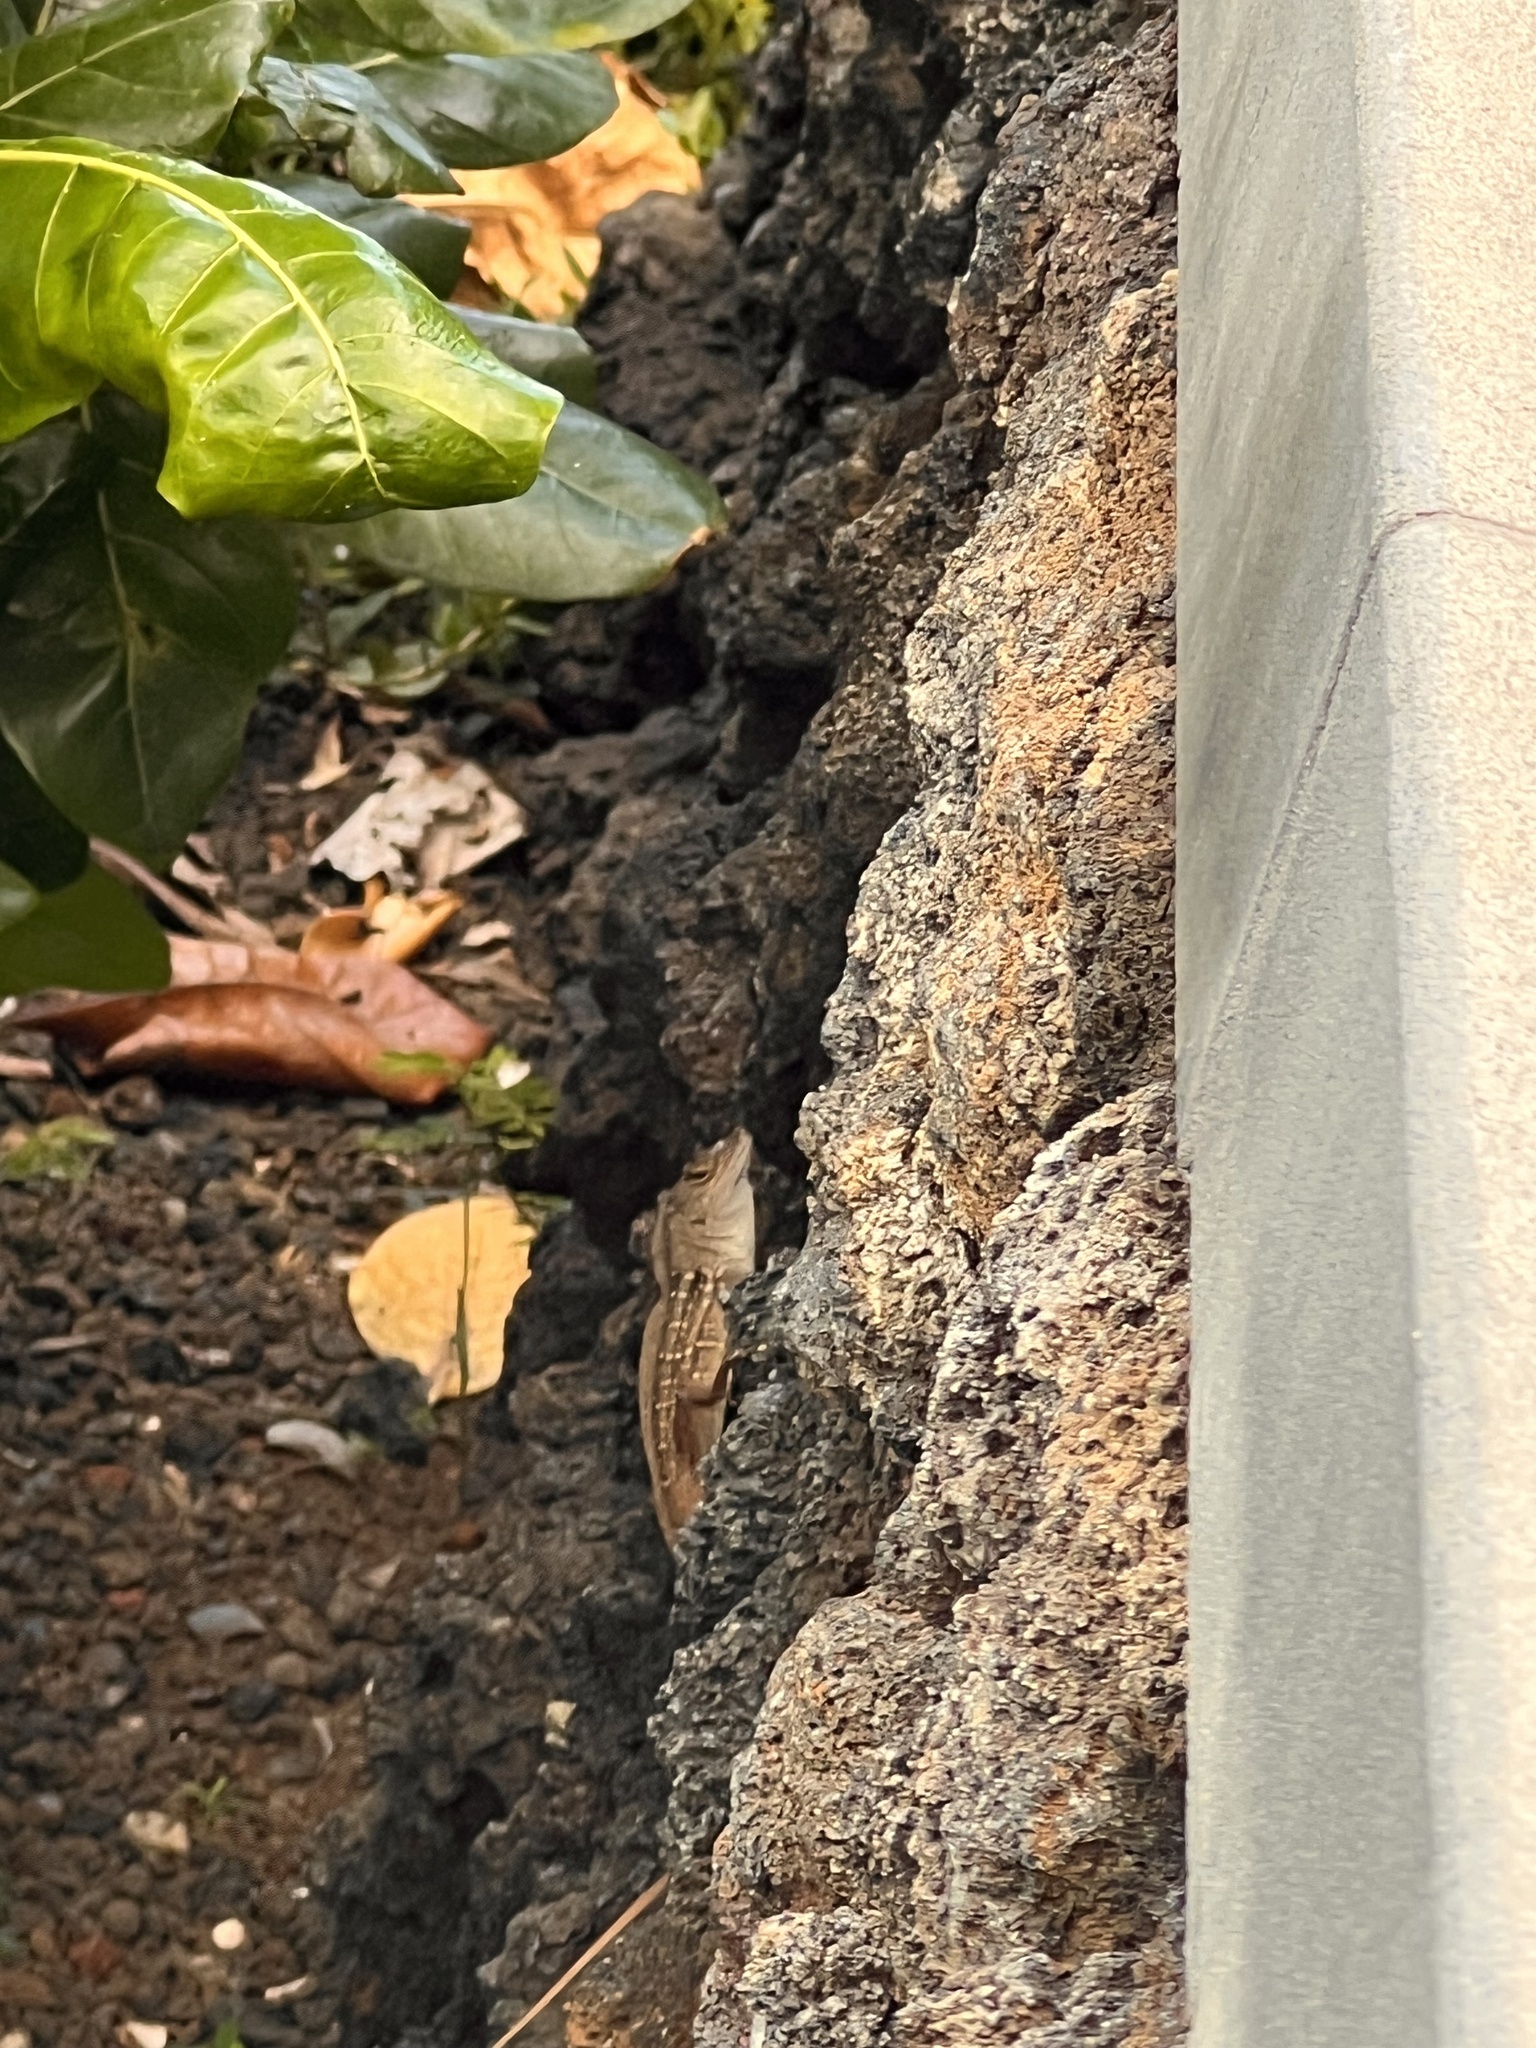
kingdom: Animalia
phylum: Chordata
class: Squamata
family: Dactyloidae
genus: Anolis
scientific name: Anolis sagrei
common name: Brown anole
